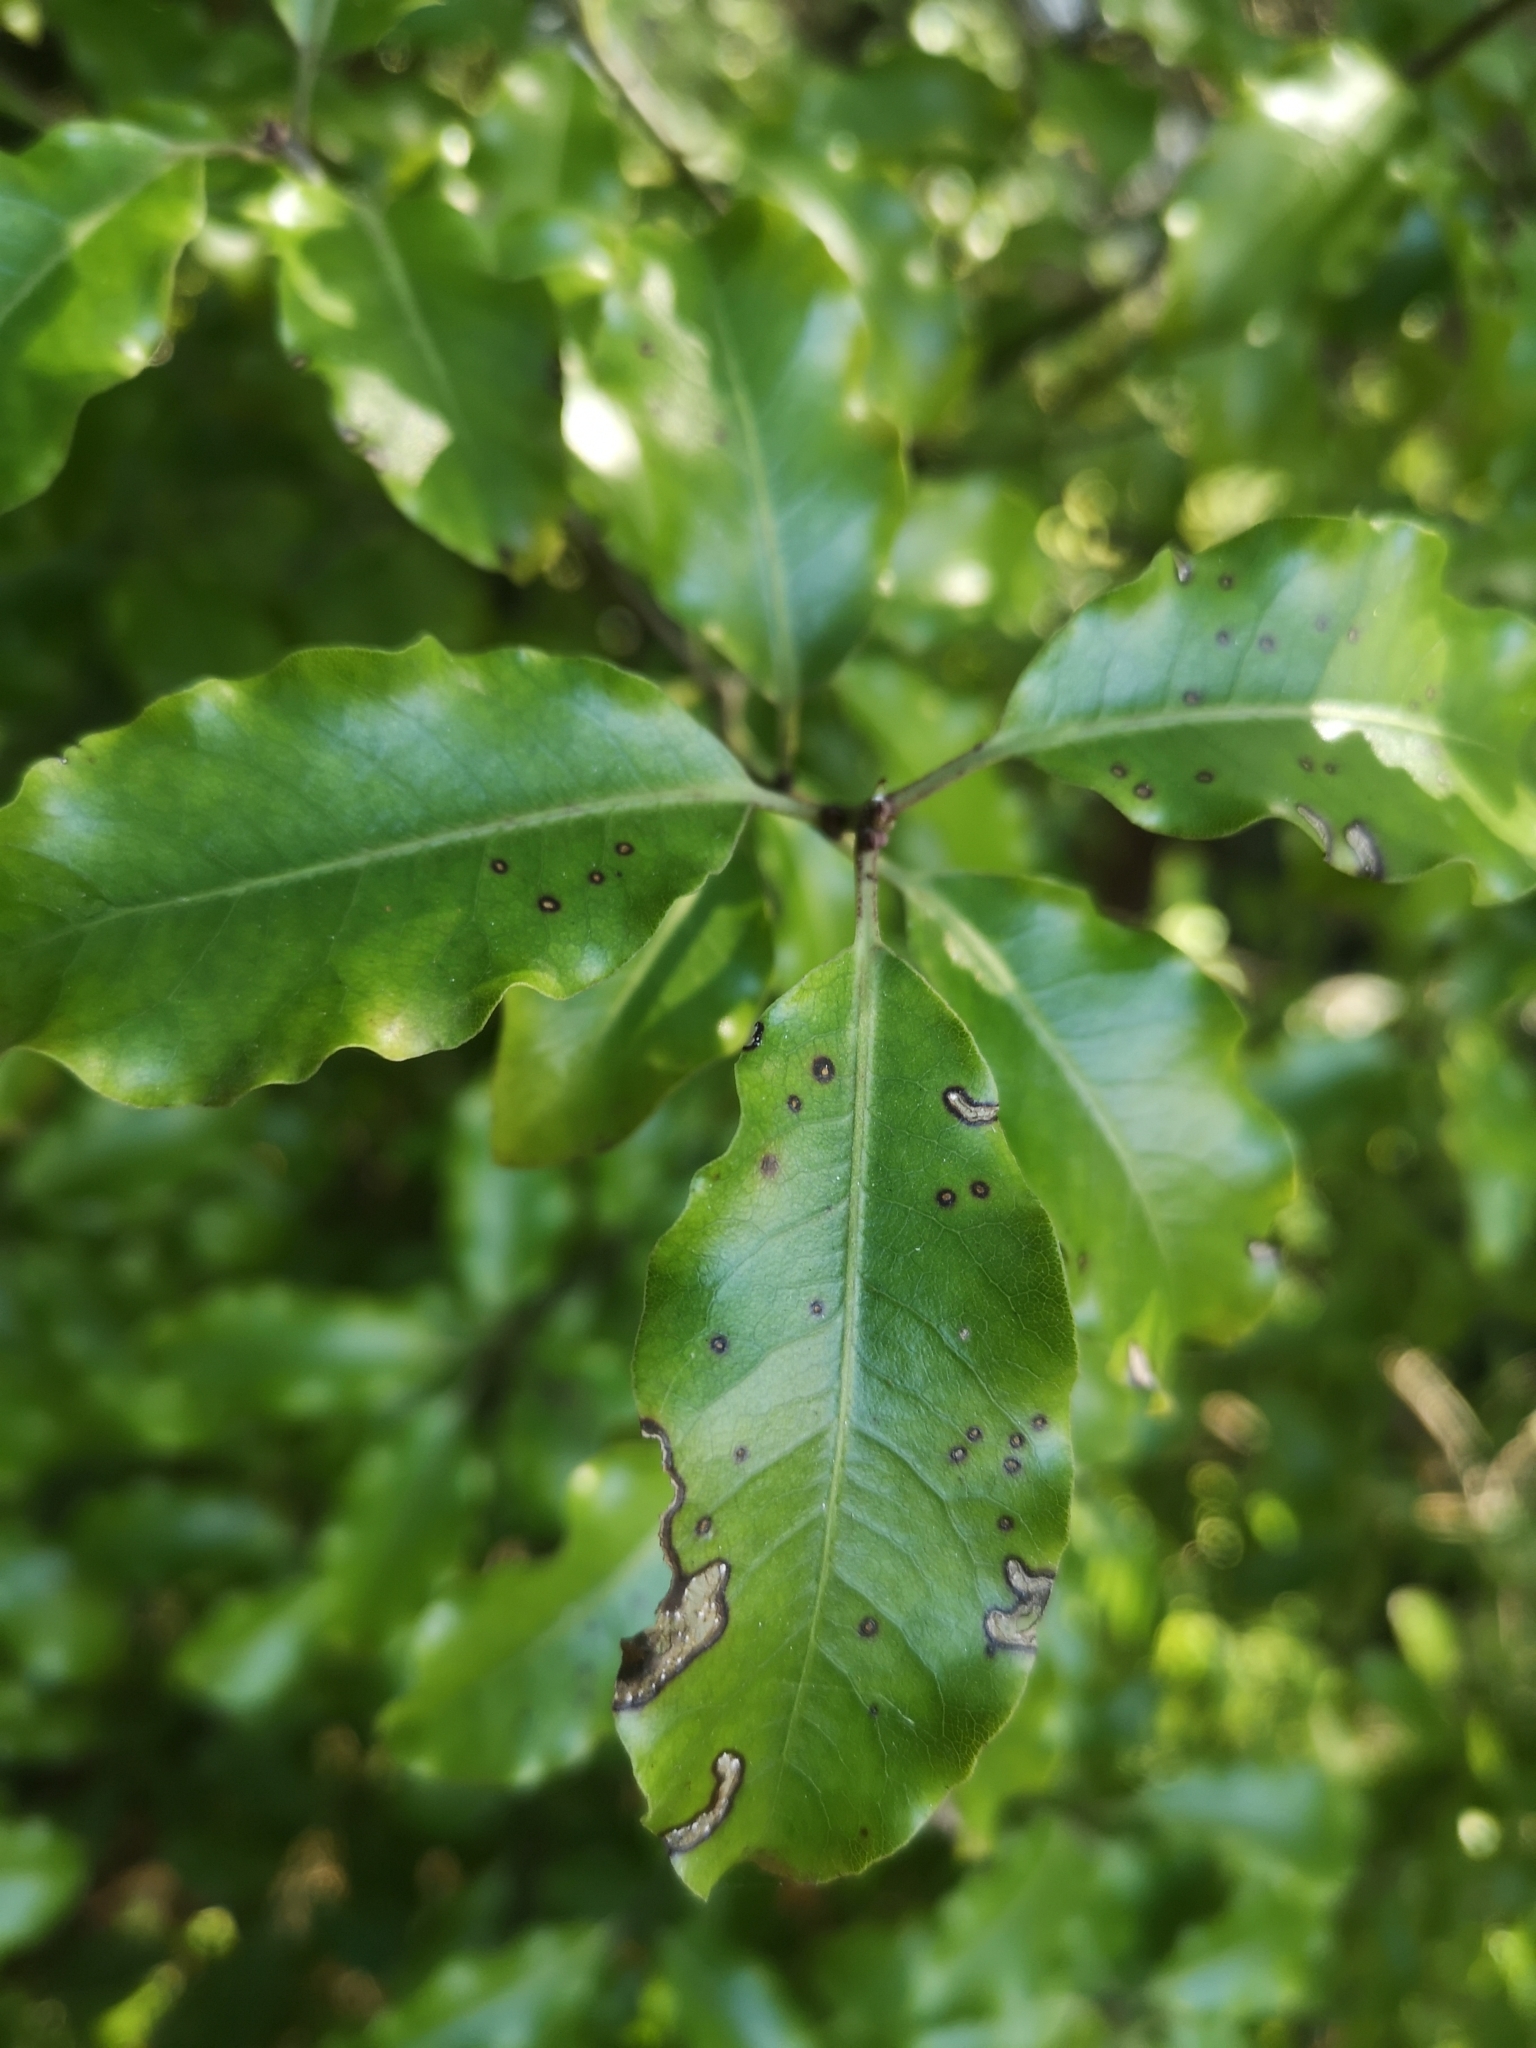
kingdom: Plantae
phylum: Tracheophyta
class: Magnoliopsida
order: Apiales
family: Pittosporaceae
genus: Pittosporum
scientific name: Pittosporum tenuifolium
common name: Kohuhu
